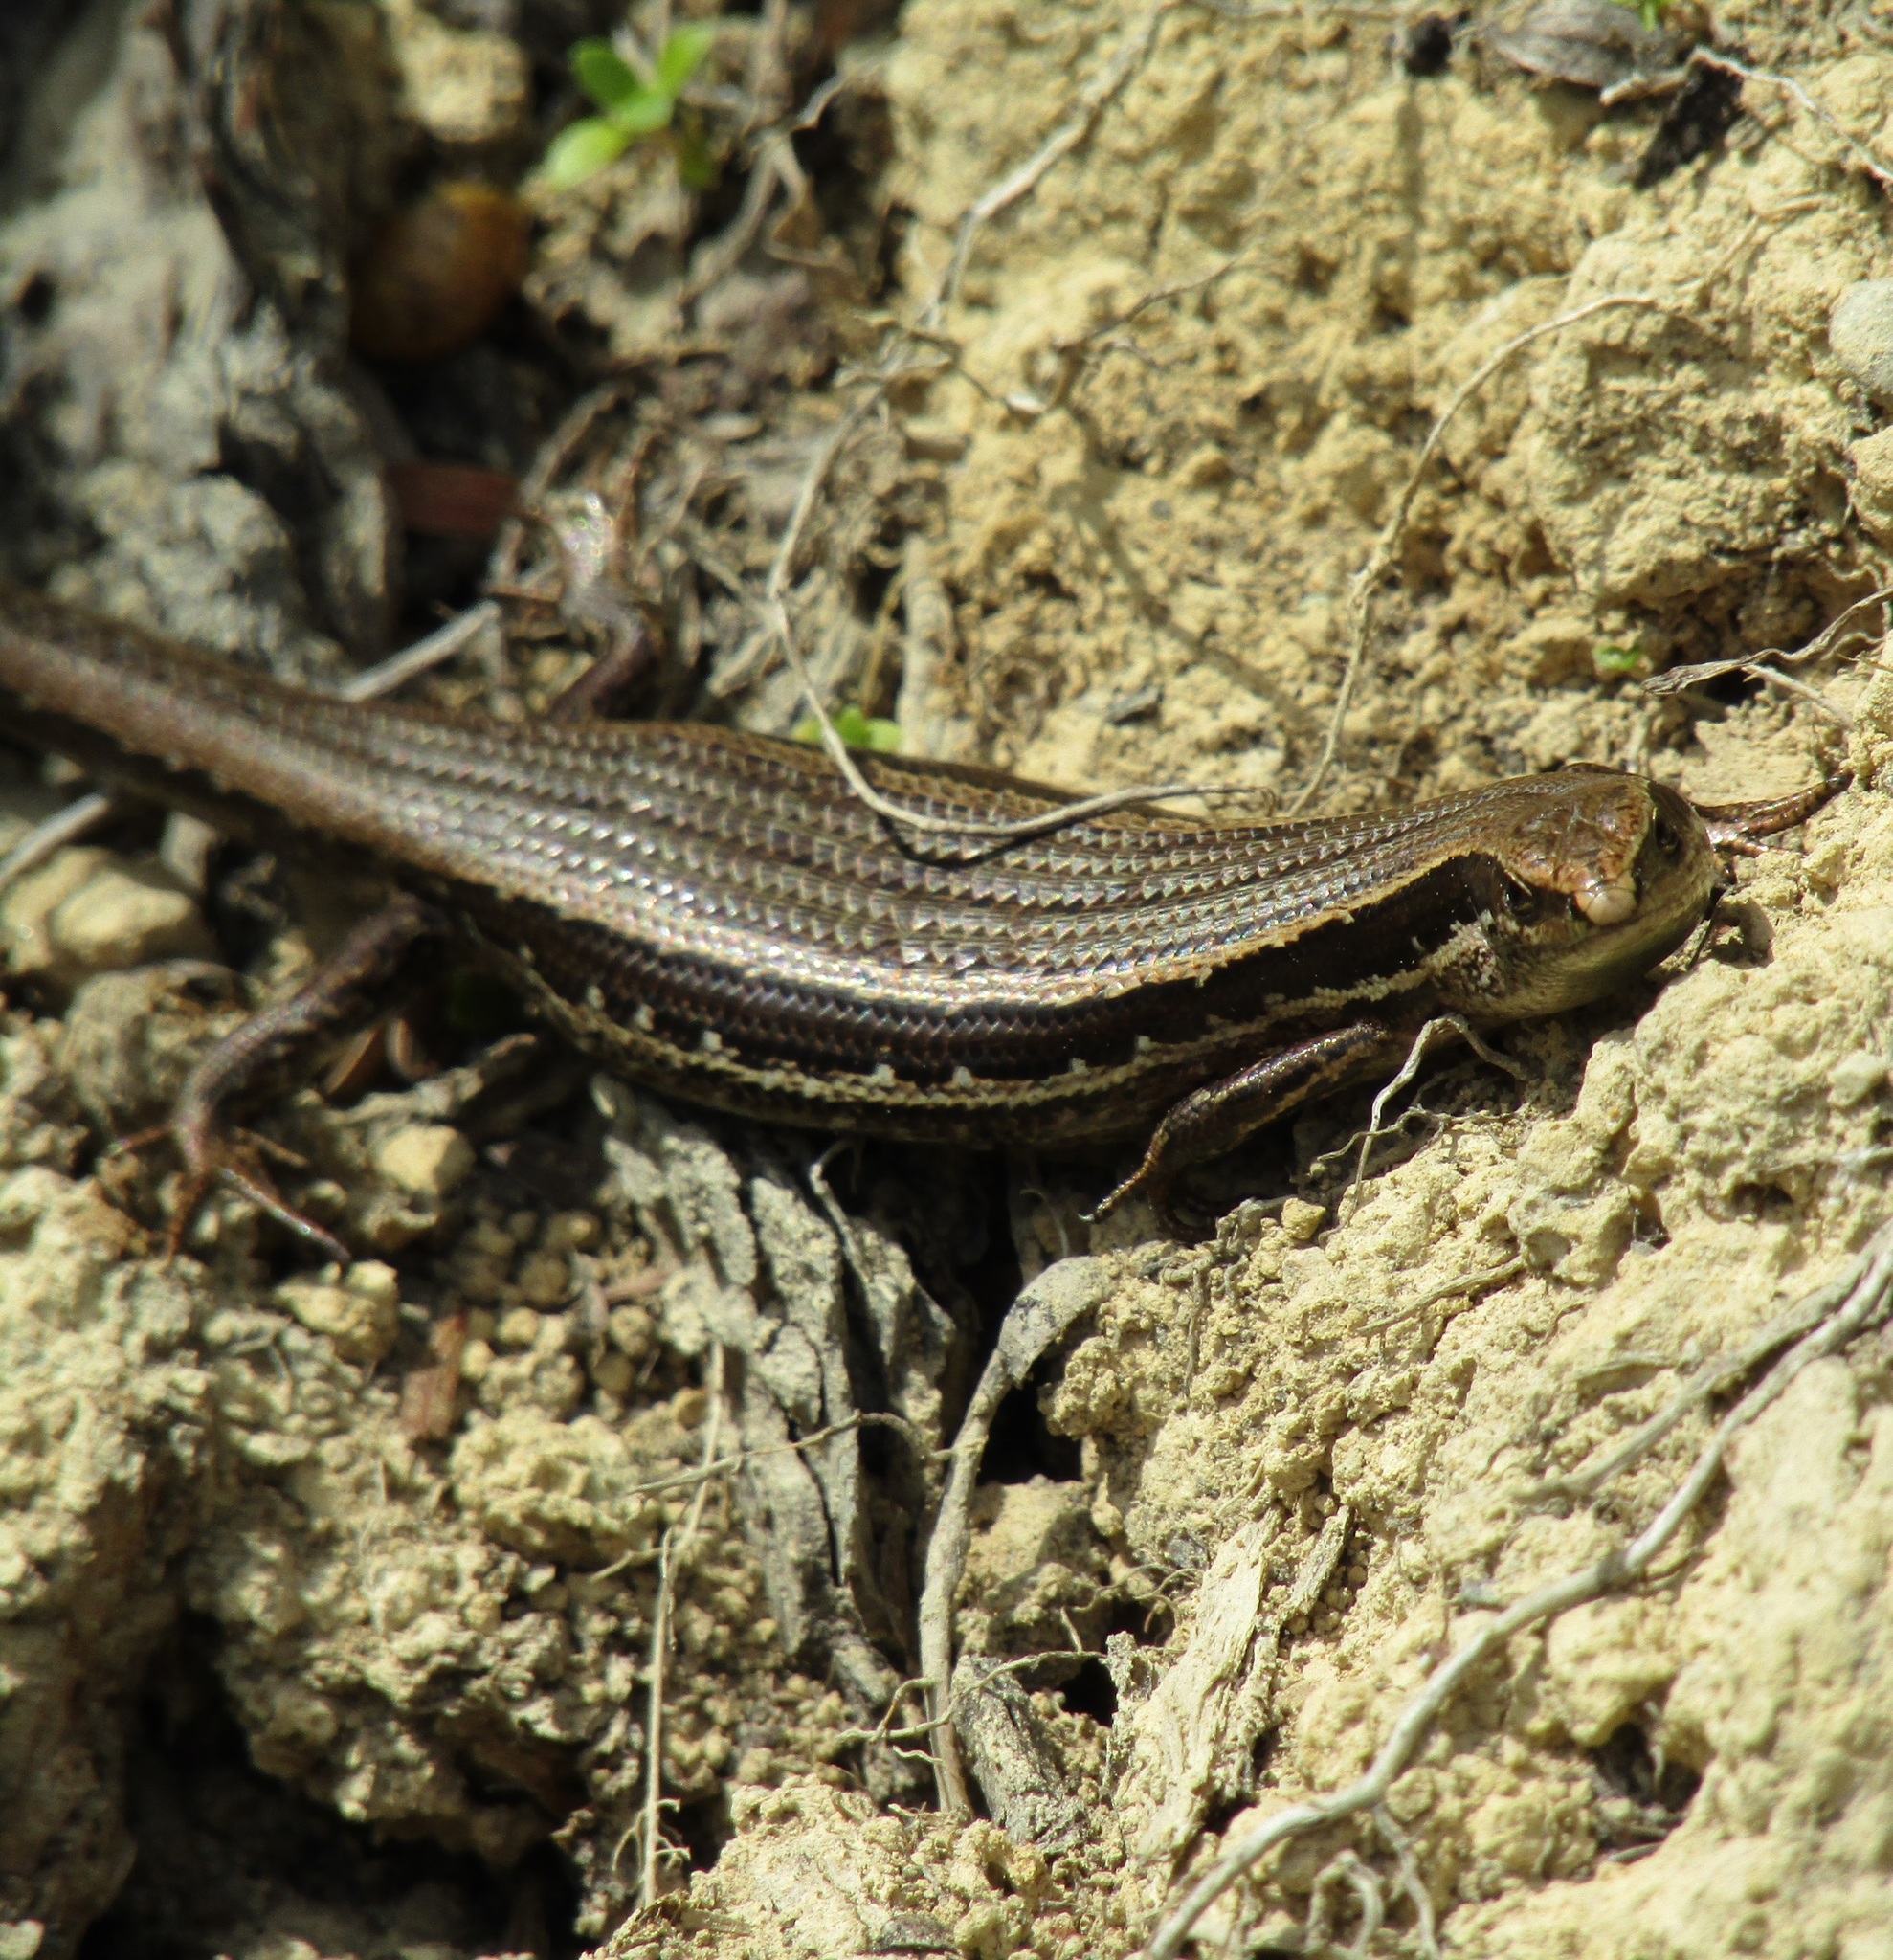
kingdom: Animalia
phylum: Chordata
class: Squamata
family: Scincidae
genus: Oligosoma
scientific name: Oligosoma polychroma
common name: Common new zealand skink
